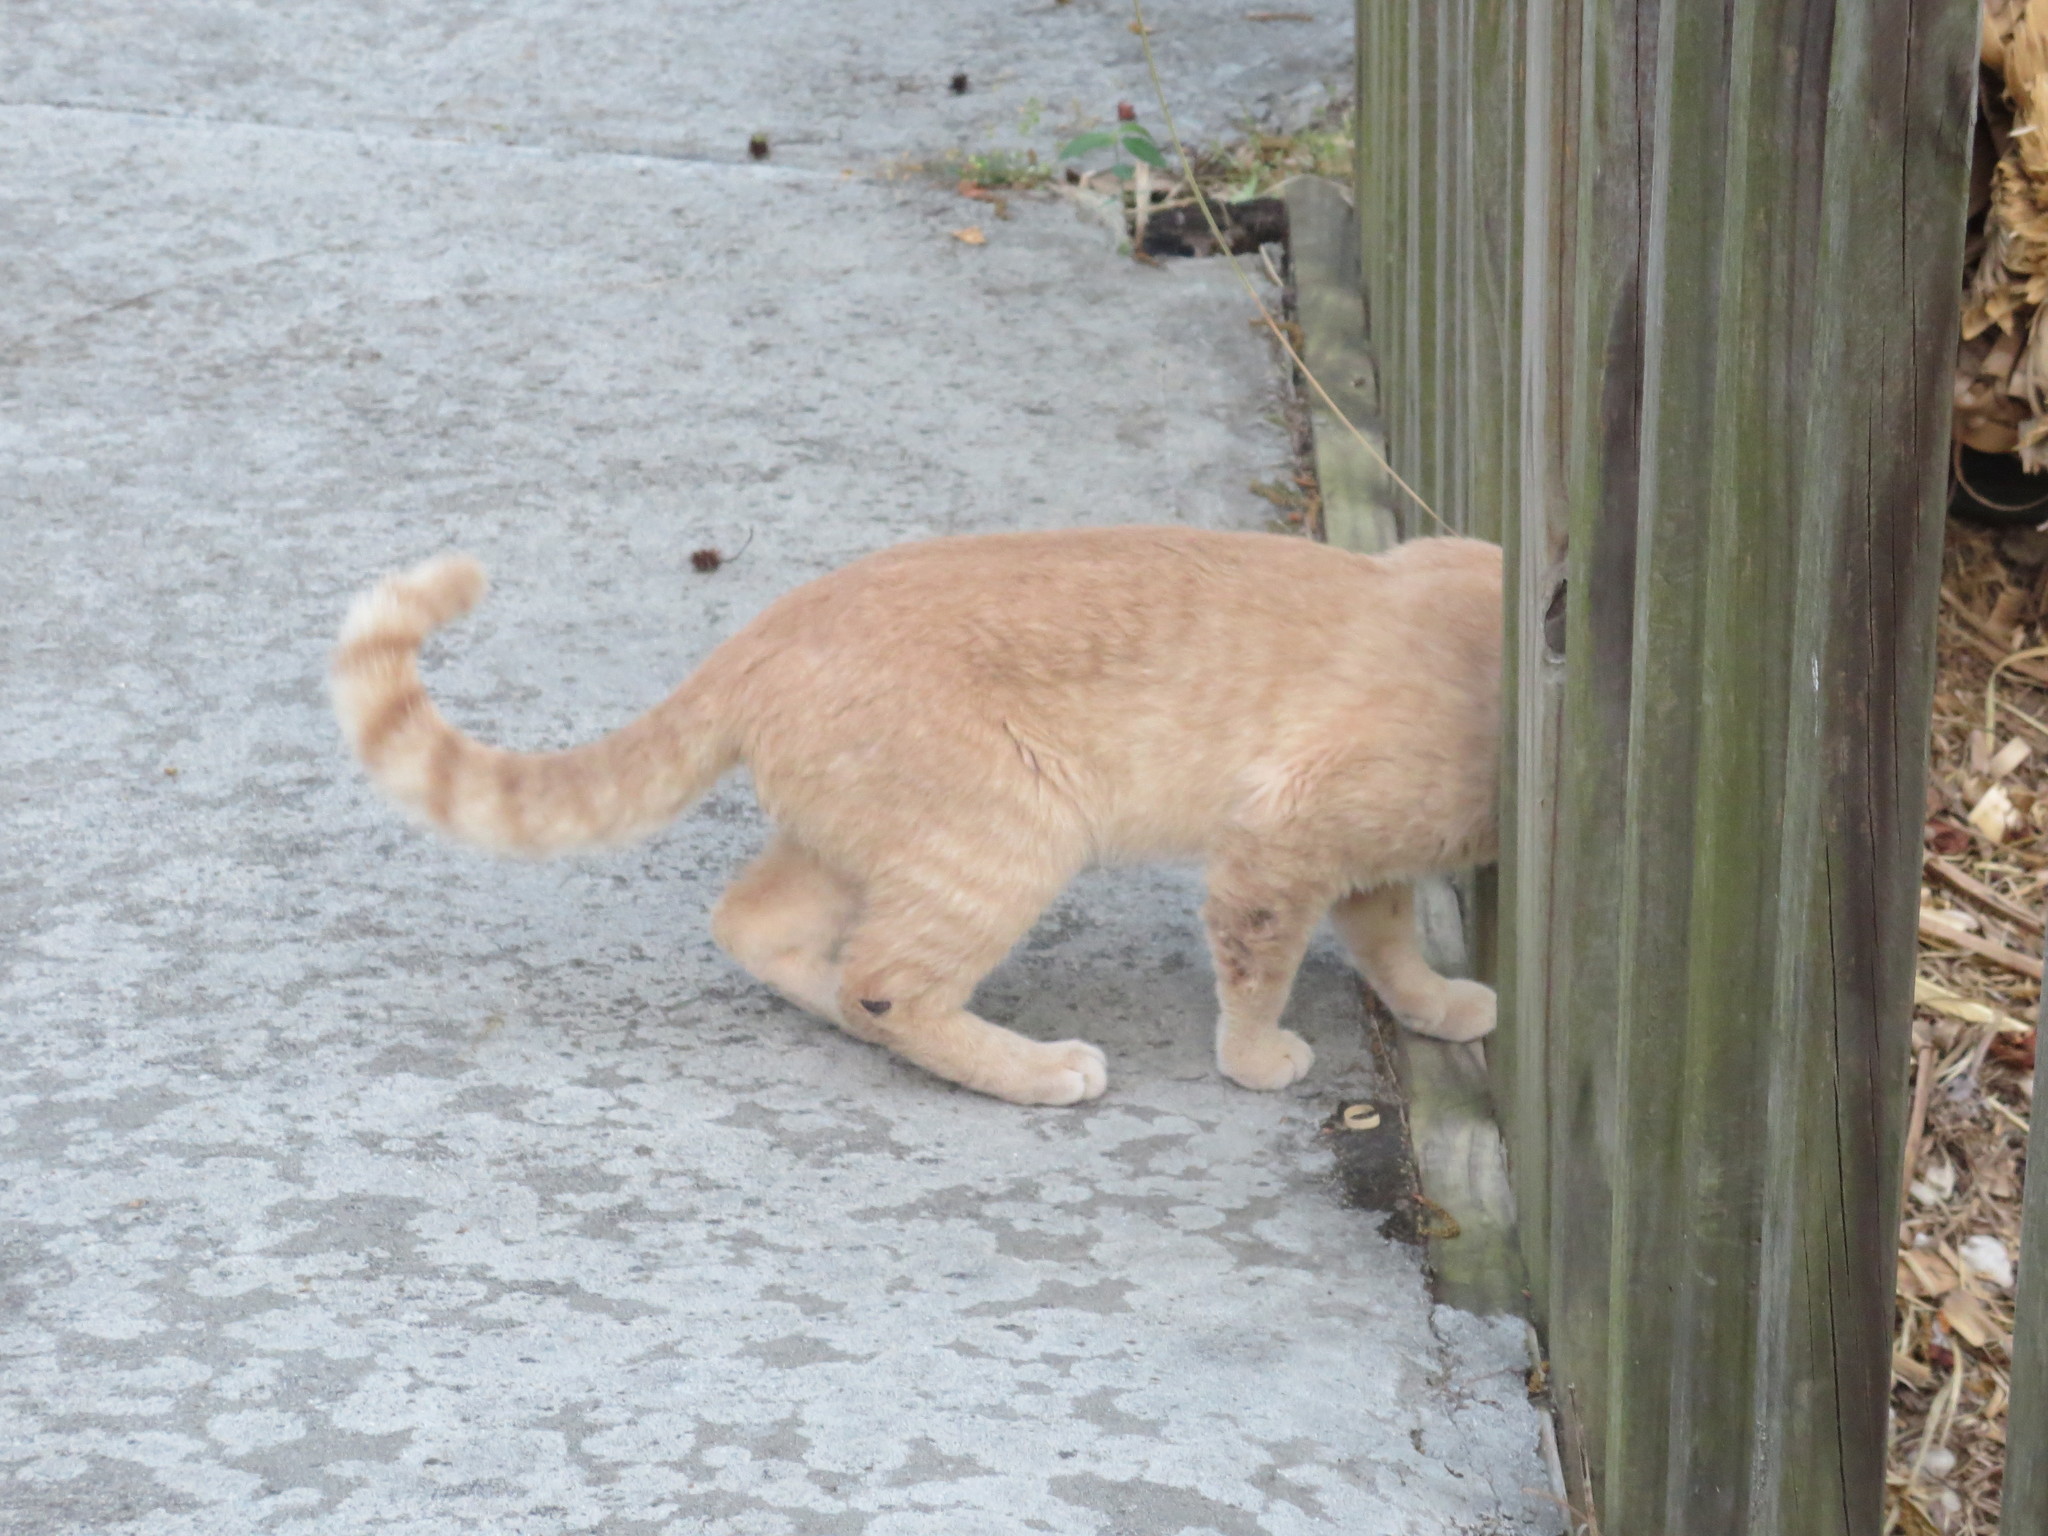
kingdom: Animalia
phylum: Chordata
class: Mammalia
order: Carnivora
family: Felidae
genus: Felis
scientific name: Felis catus
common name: Domestic cat
